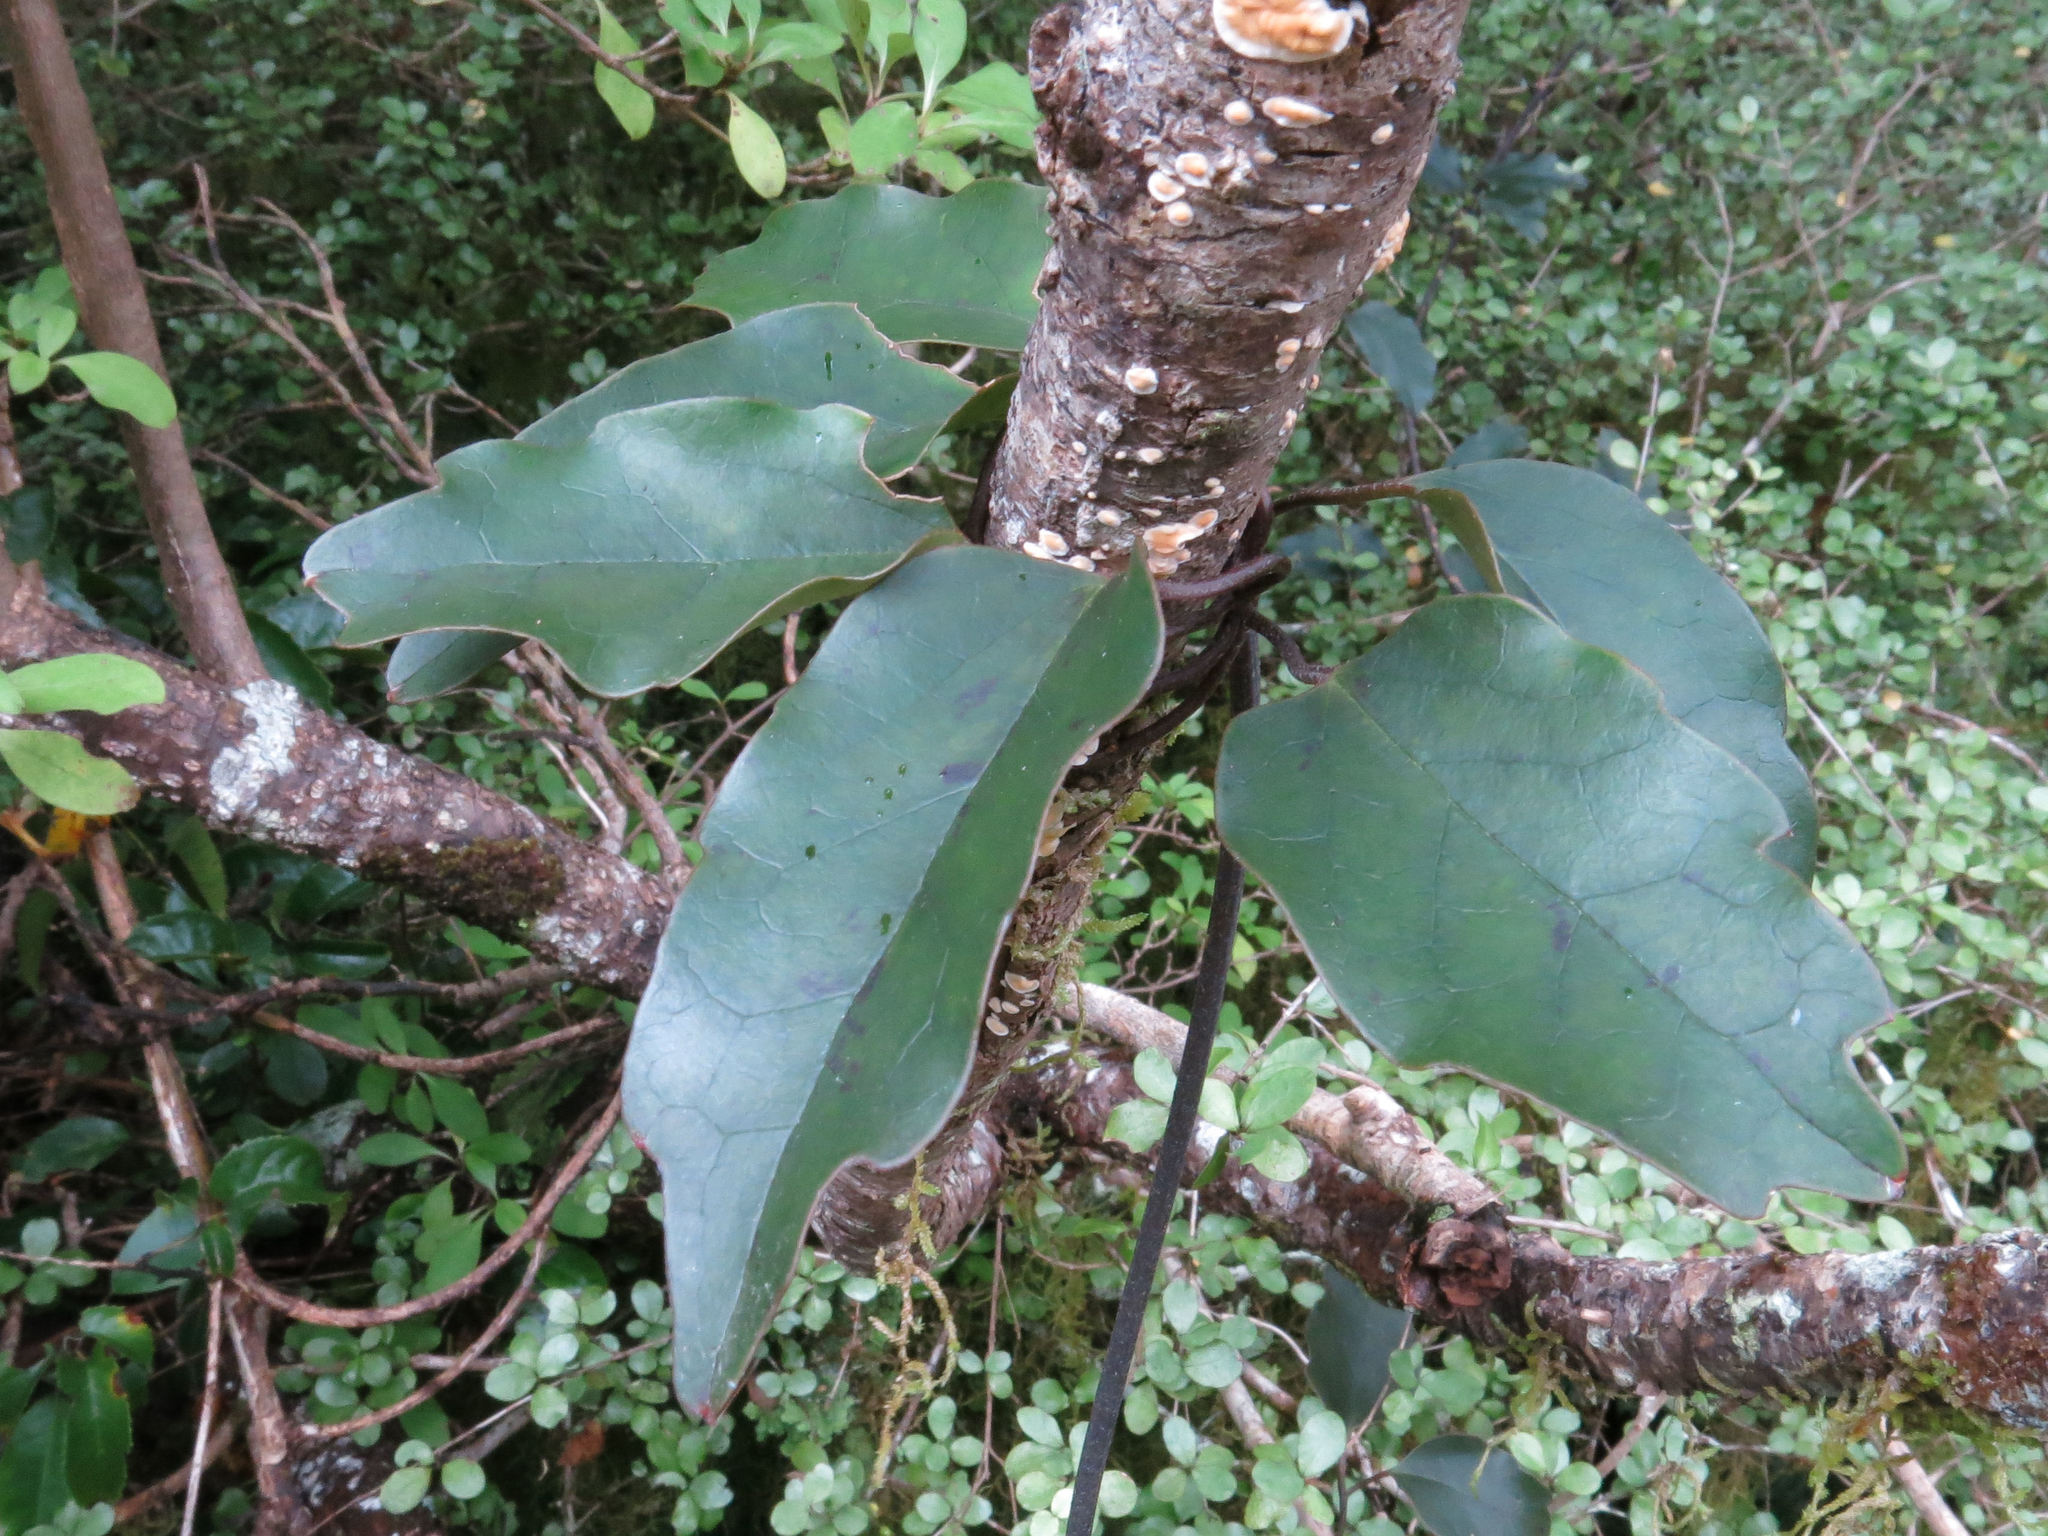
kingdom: Plantae
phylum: Tracheophyta
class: Magnoliopsida
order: Ranunculales
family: Ranunculaceae
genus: Clematis
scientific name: Clematis paniculata
